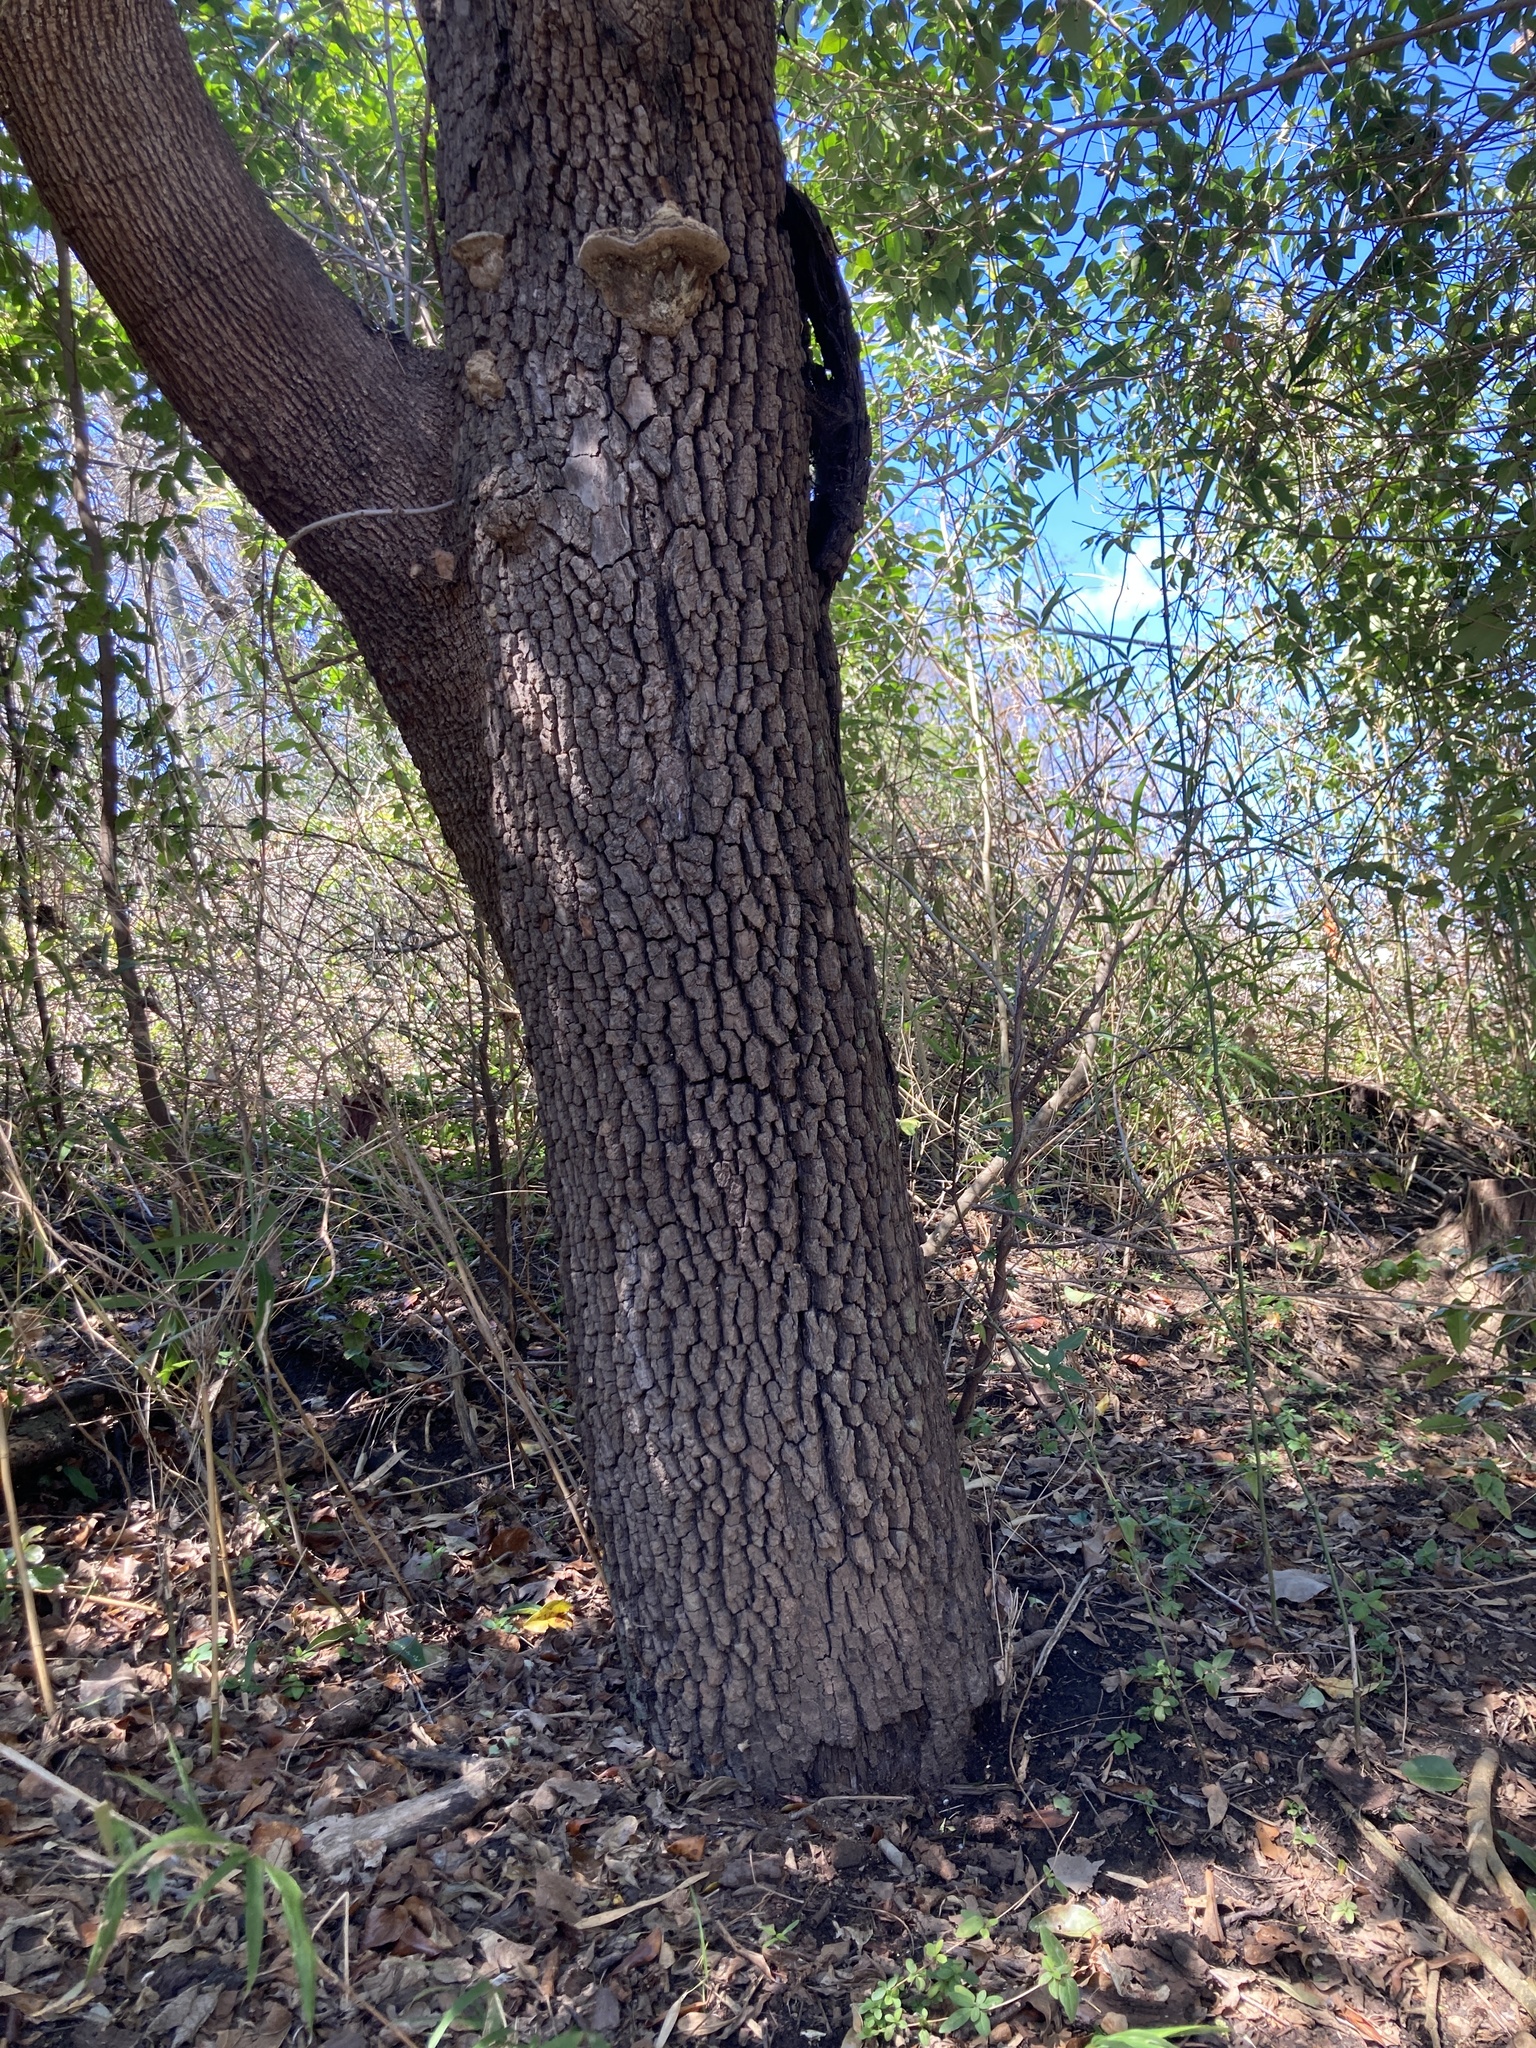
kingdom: Plantae
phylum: Tracheophyta
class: Magnoliopsida
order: Ericales
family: Ebenaceae
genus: Diospyros
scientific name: Diospyros virginiana
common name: Persimmon
